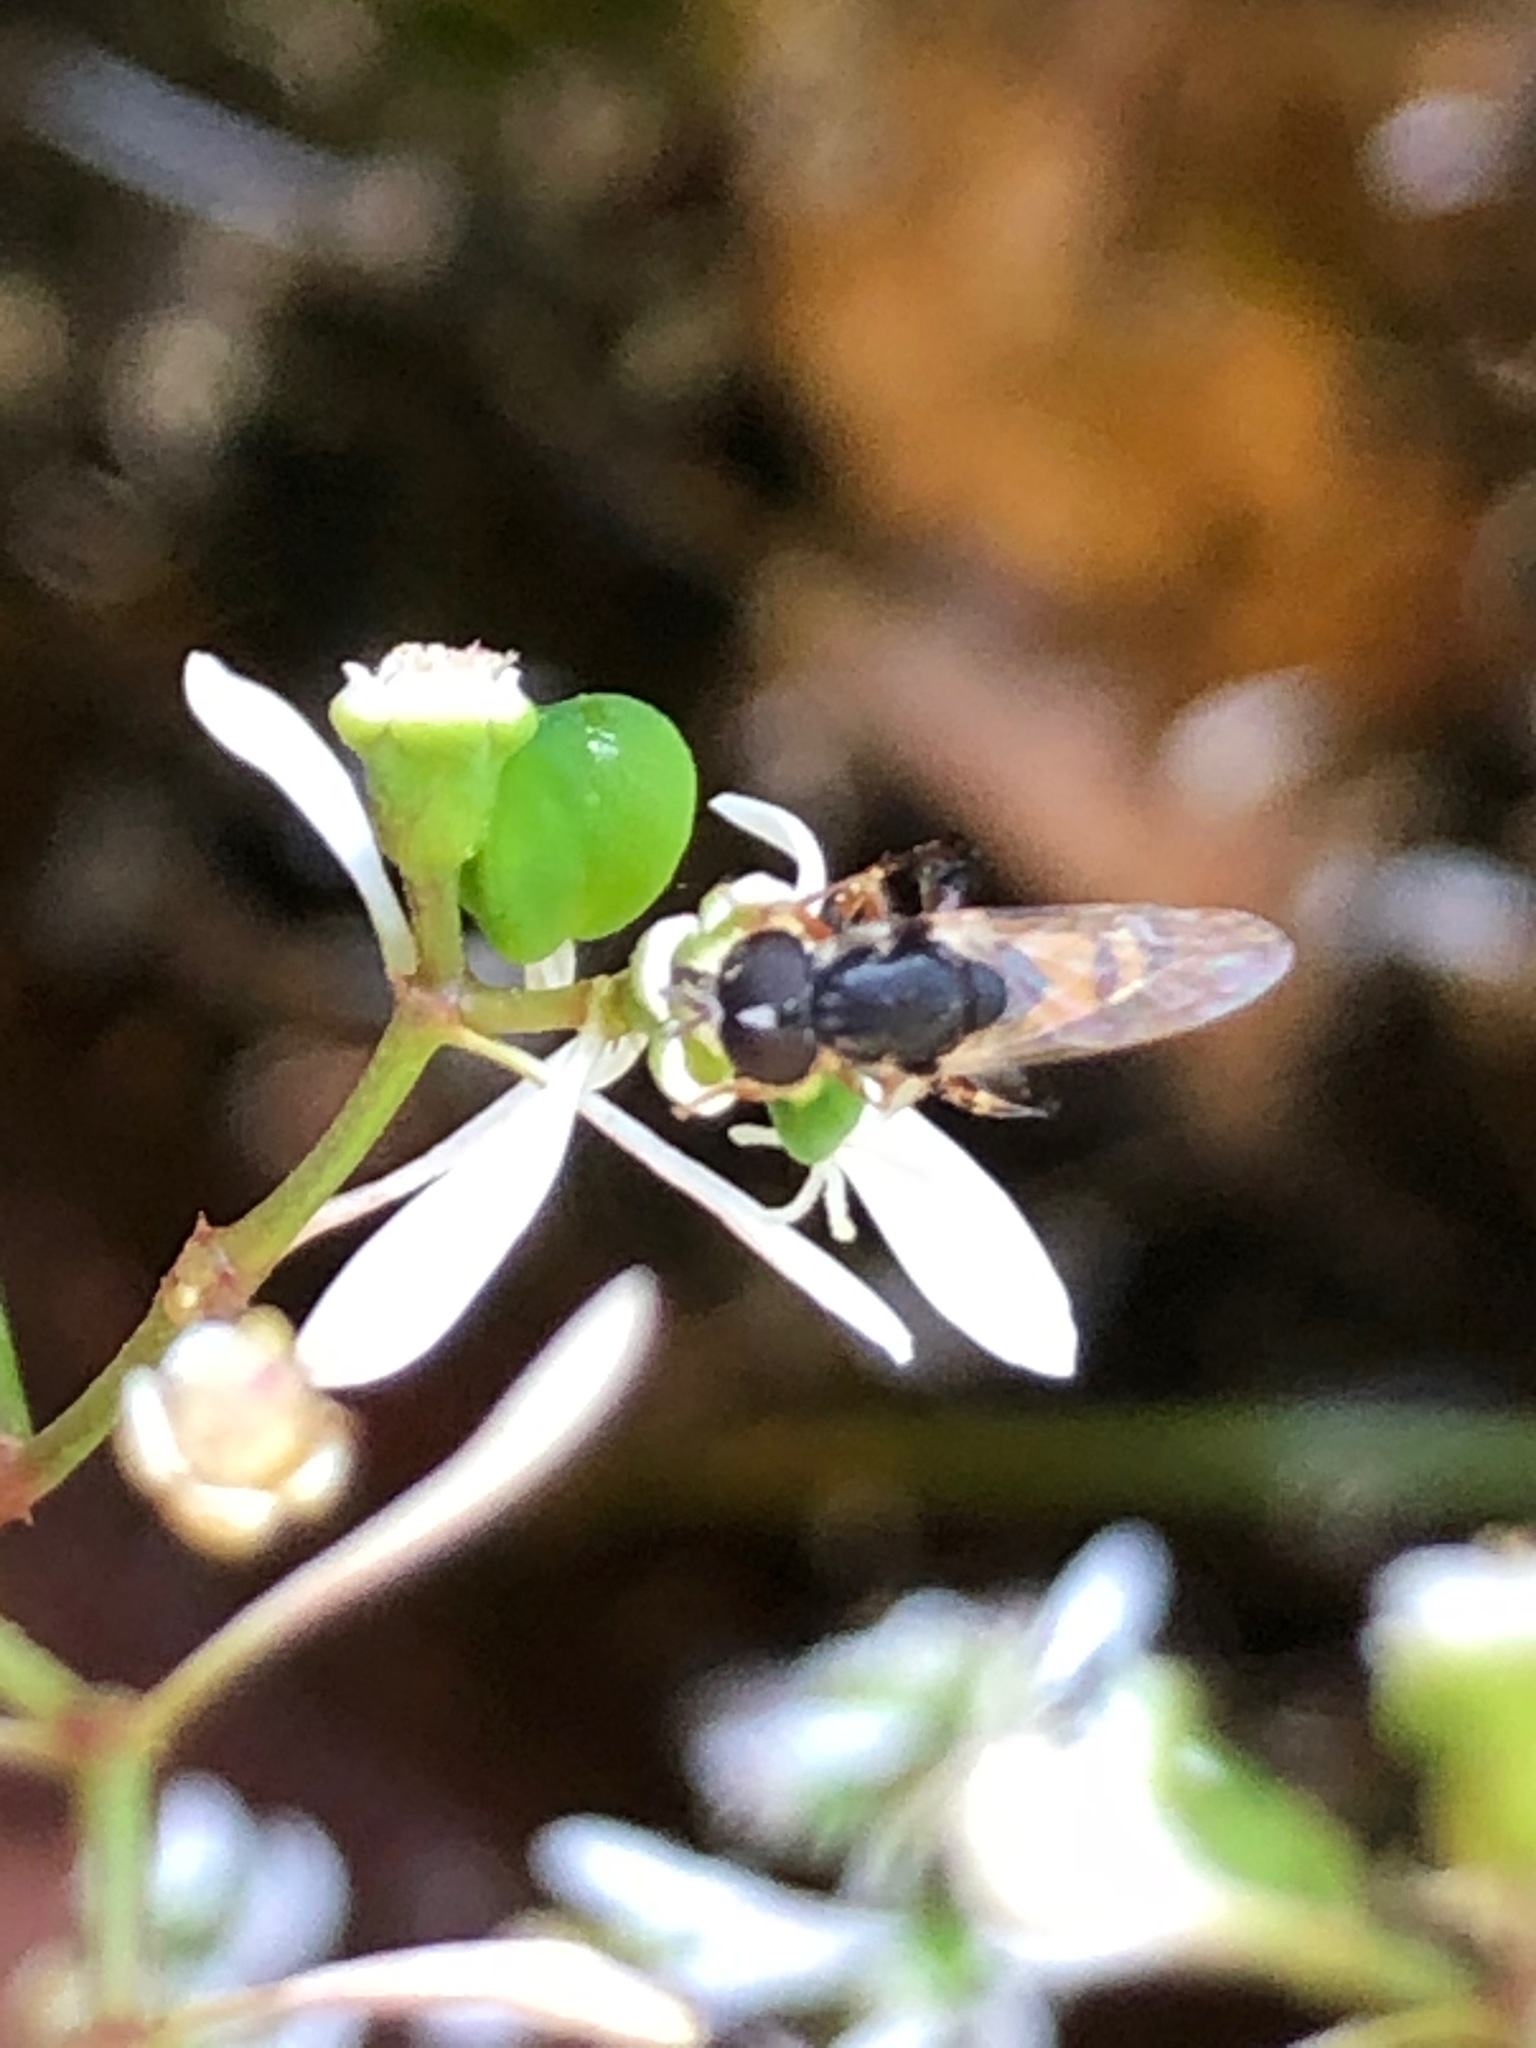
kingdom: Animalia
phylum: Arthropoda
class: Insecta
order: Diptera
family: Syrphidae
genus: Syritta
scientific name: Syritta pipiens
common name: Hover fly
